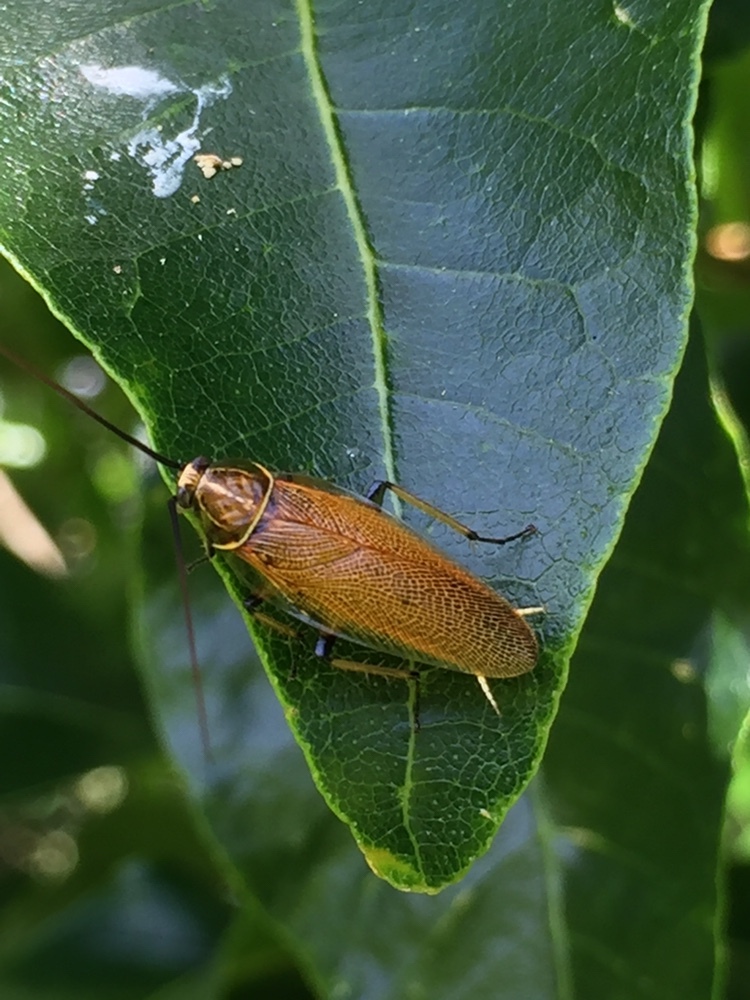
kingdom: Animalia
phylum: Arthropoda
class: Insecta
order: Blattodea
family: Ectobiidae
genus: Balta
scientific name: Balta bicolor
